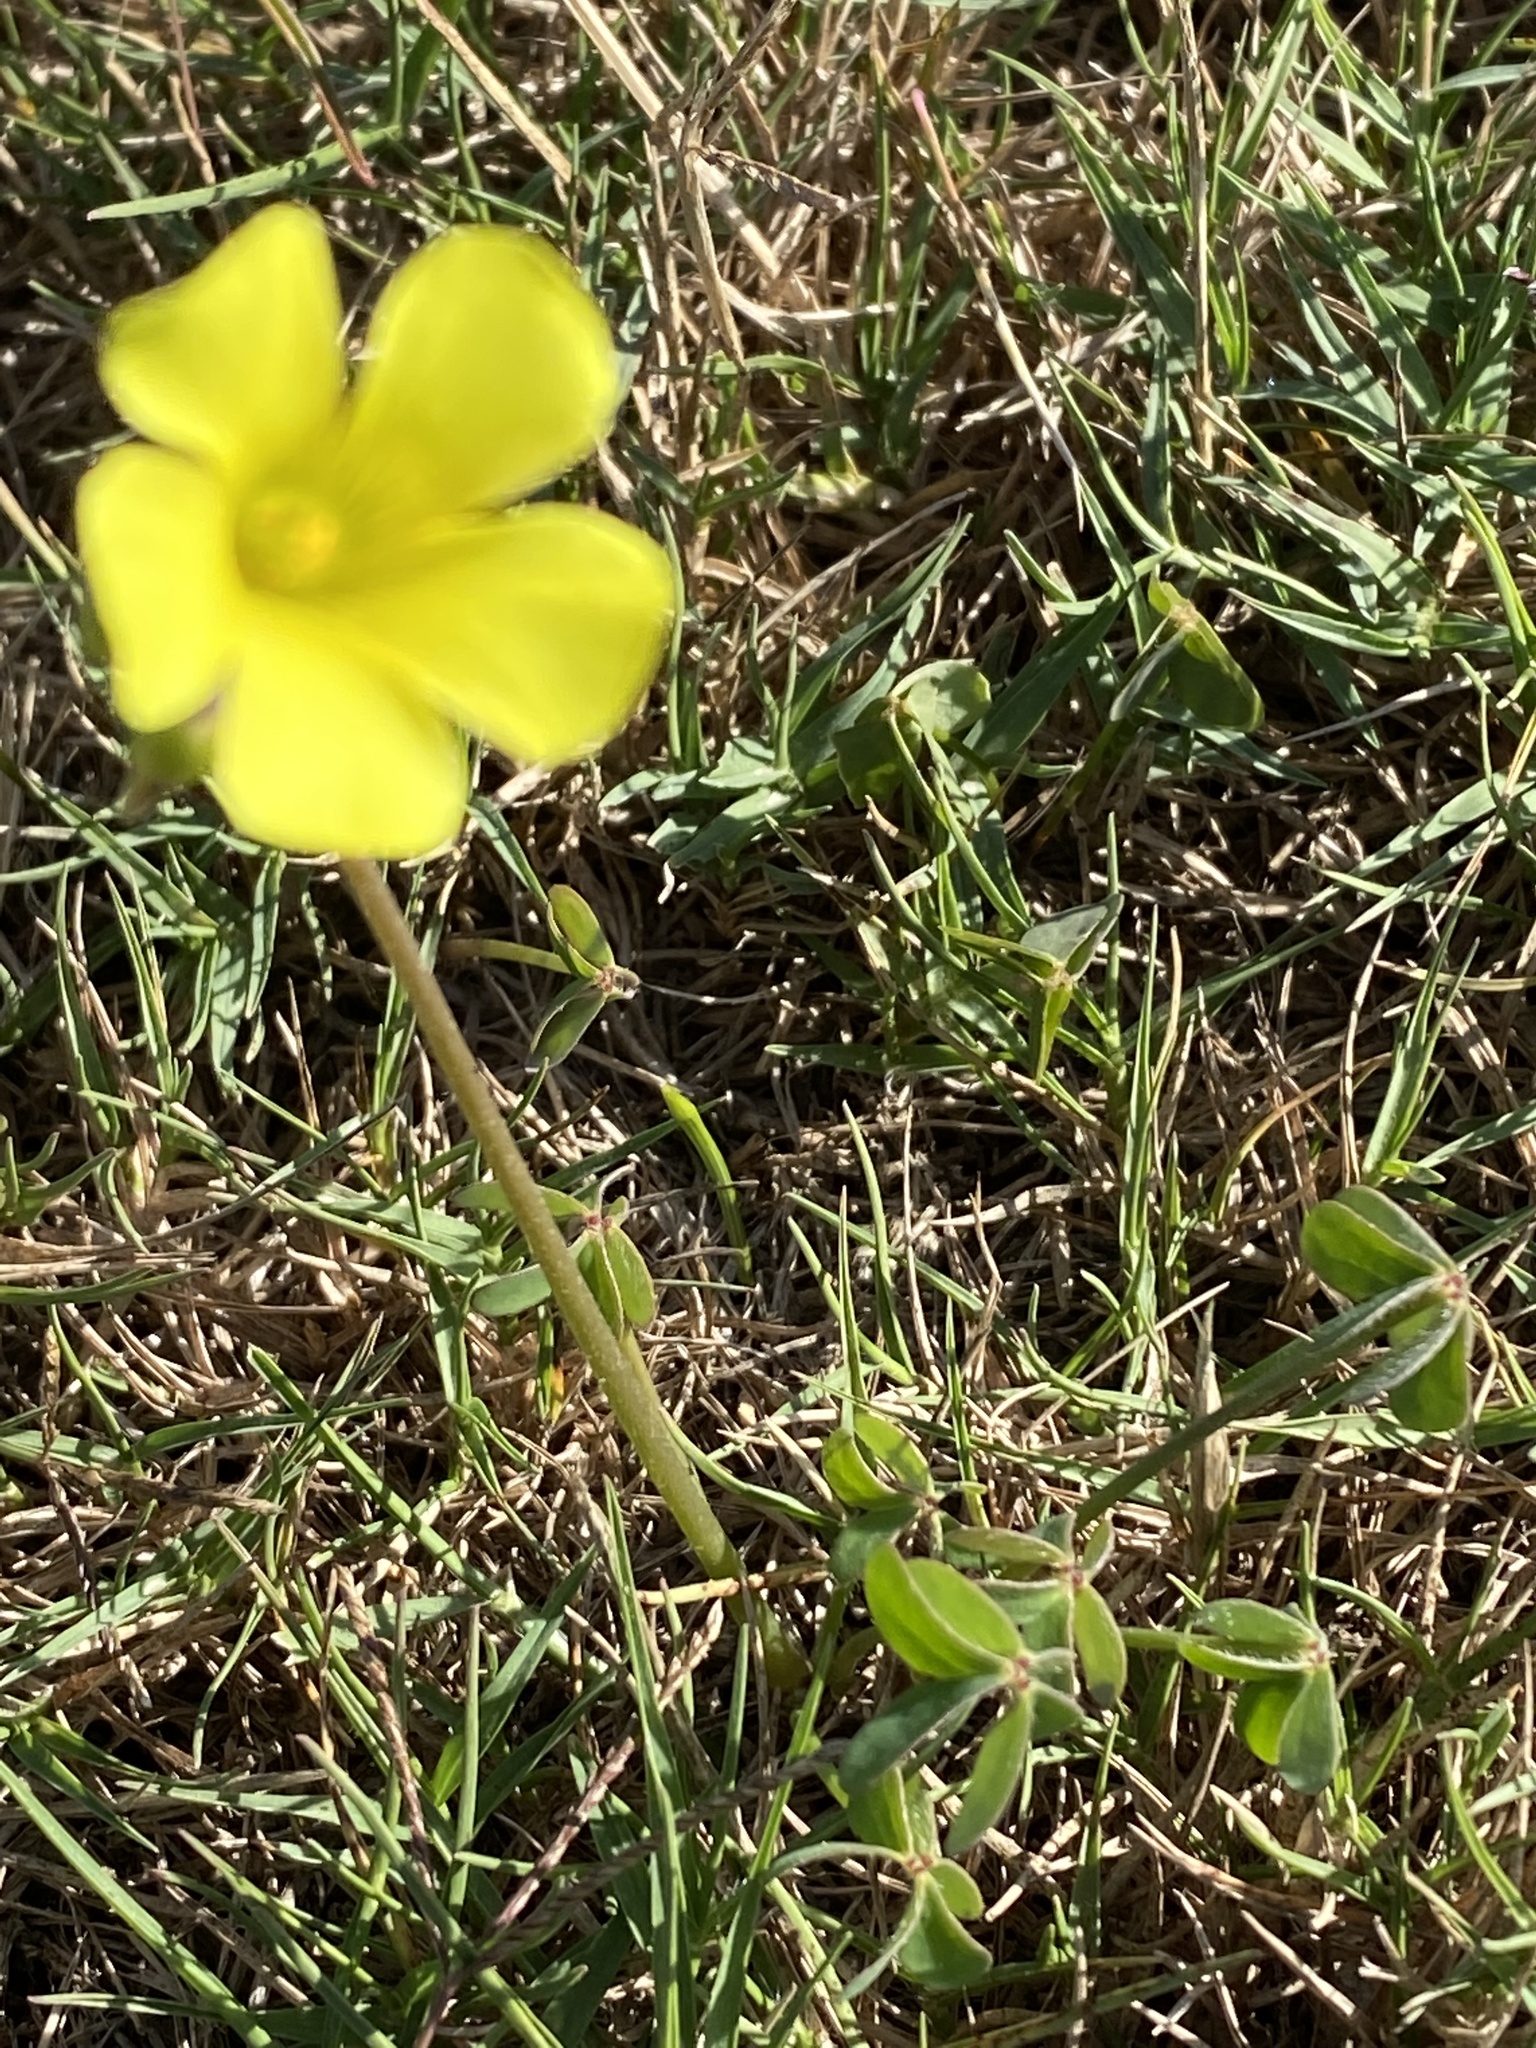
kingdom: Plantae
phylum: Tracheophyta
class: Magnoliopsida
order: Oxalidales
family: Oxalidaceae
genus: Oxalis
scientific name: Oxalis pes-caprae
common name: Bermuda-buttercup
